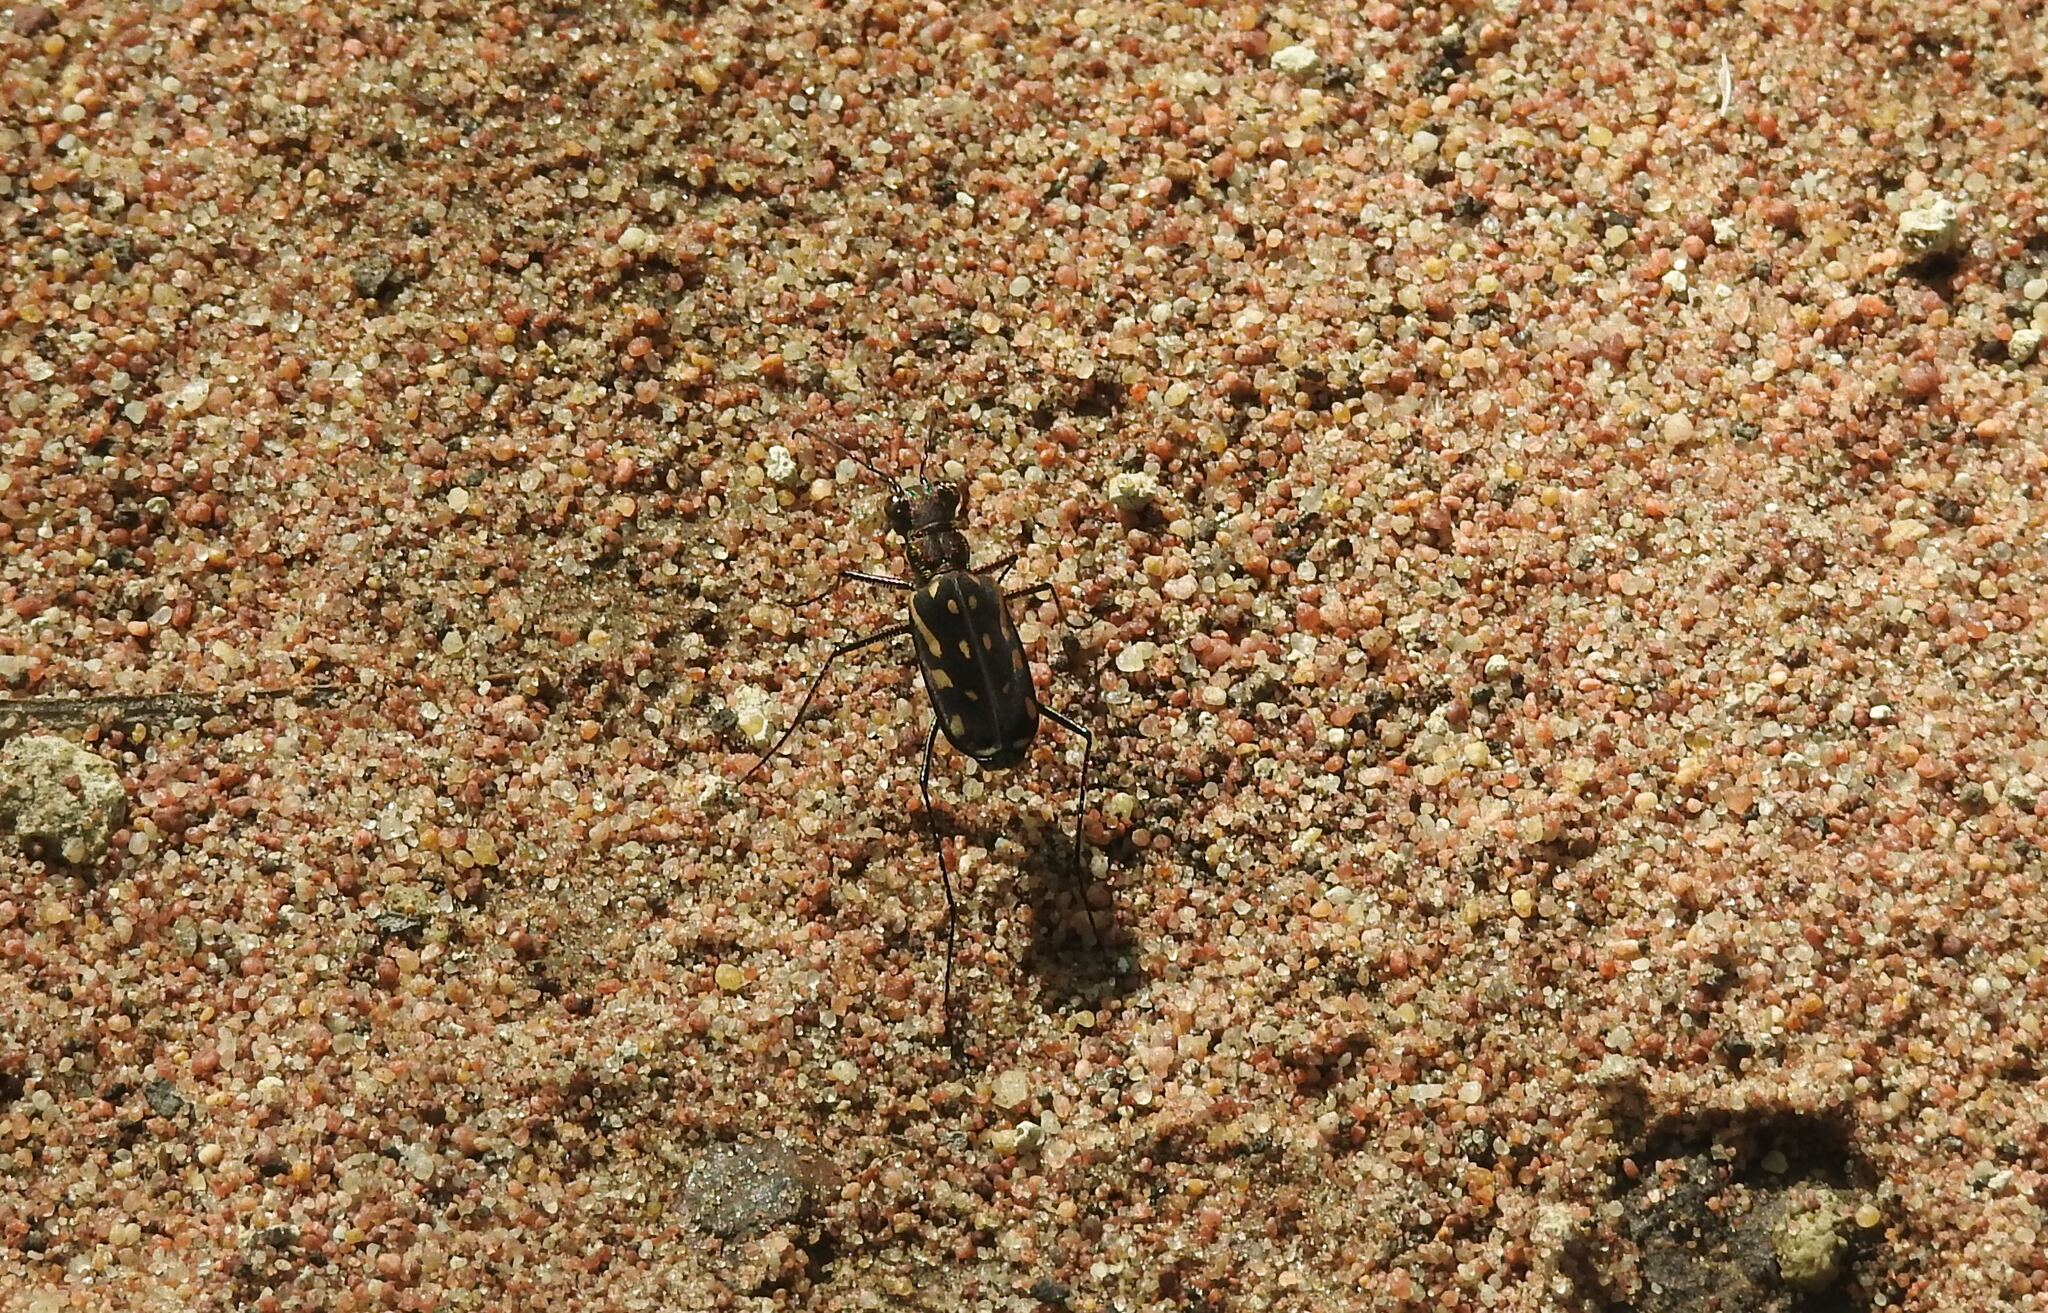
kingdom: Animalia
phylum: Arthropoda
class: Insecta
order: Coleoptera
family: Carabidae
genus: Lophyra
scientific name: Lophyra striolata
